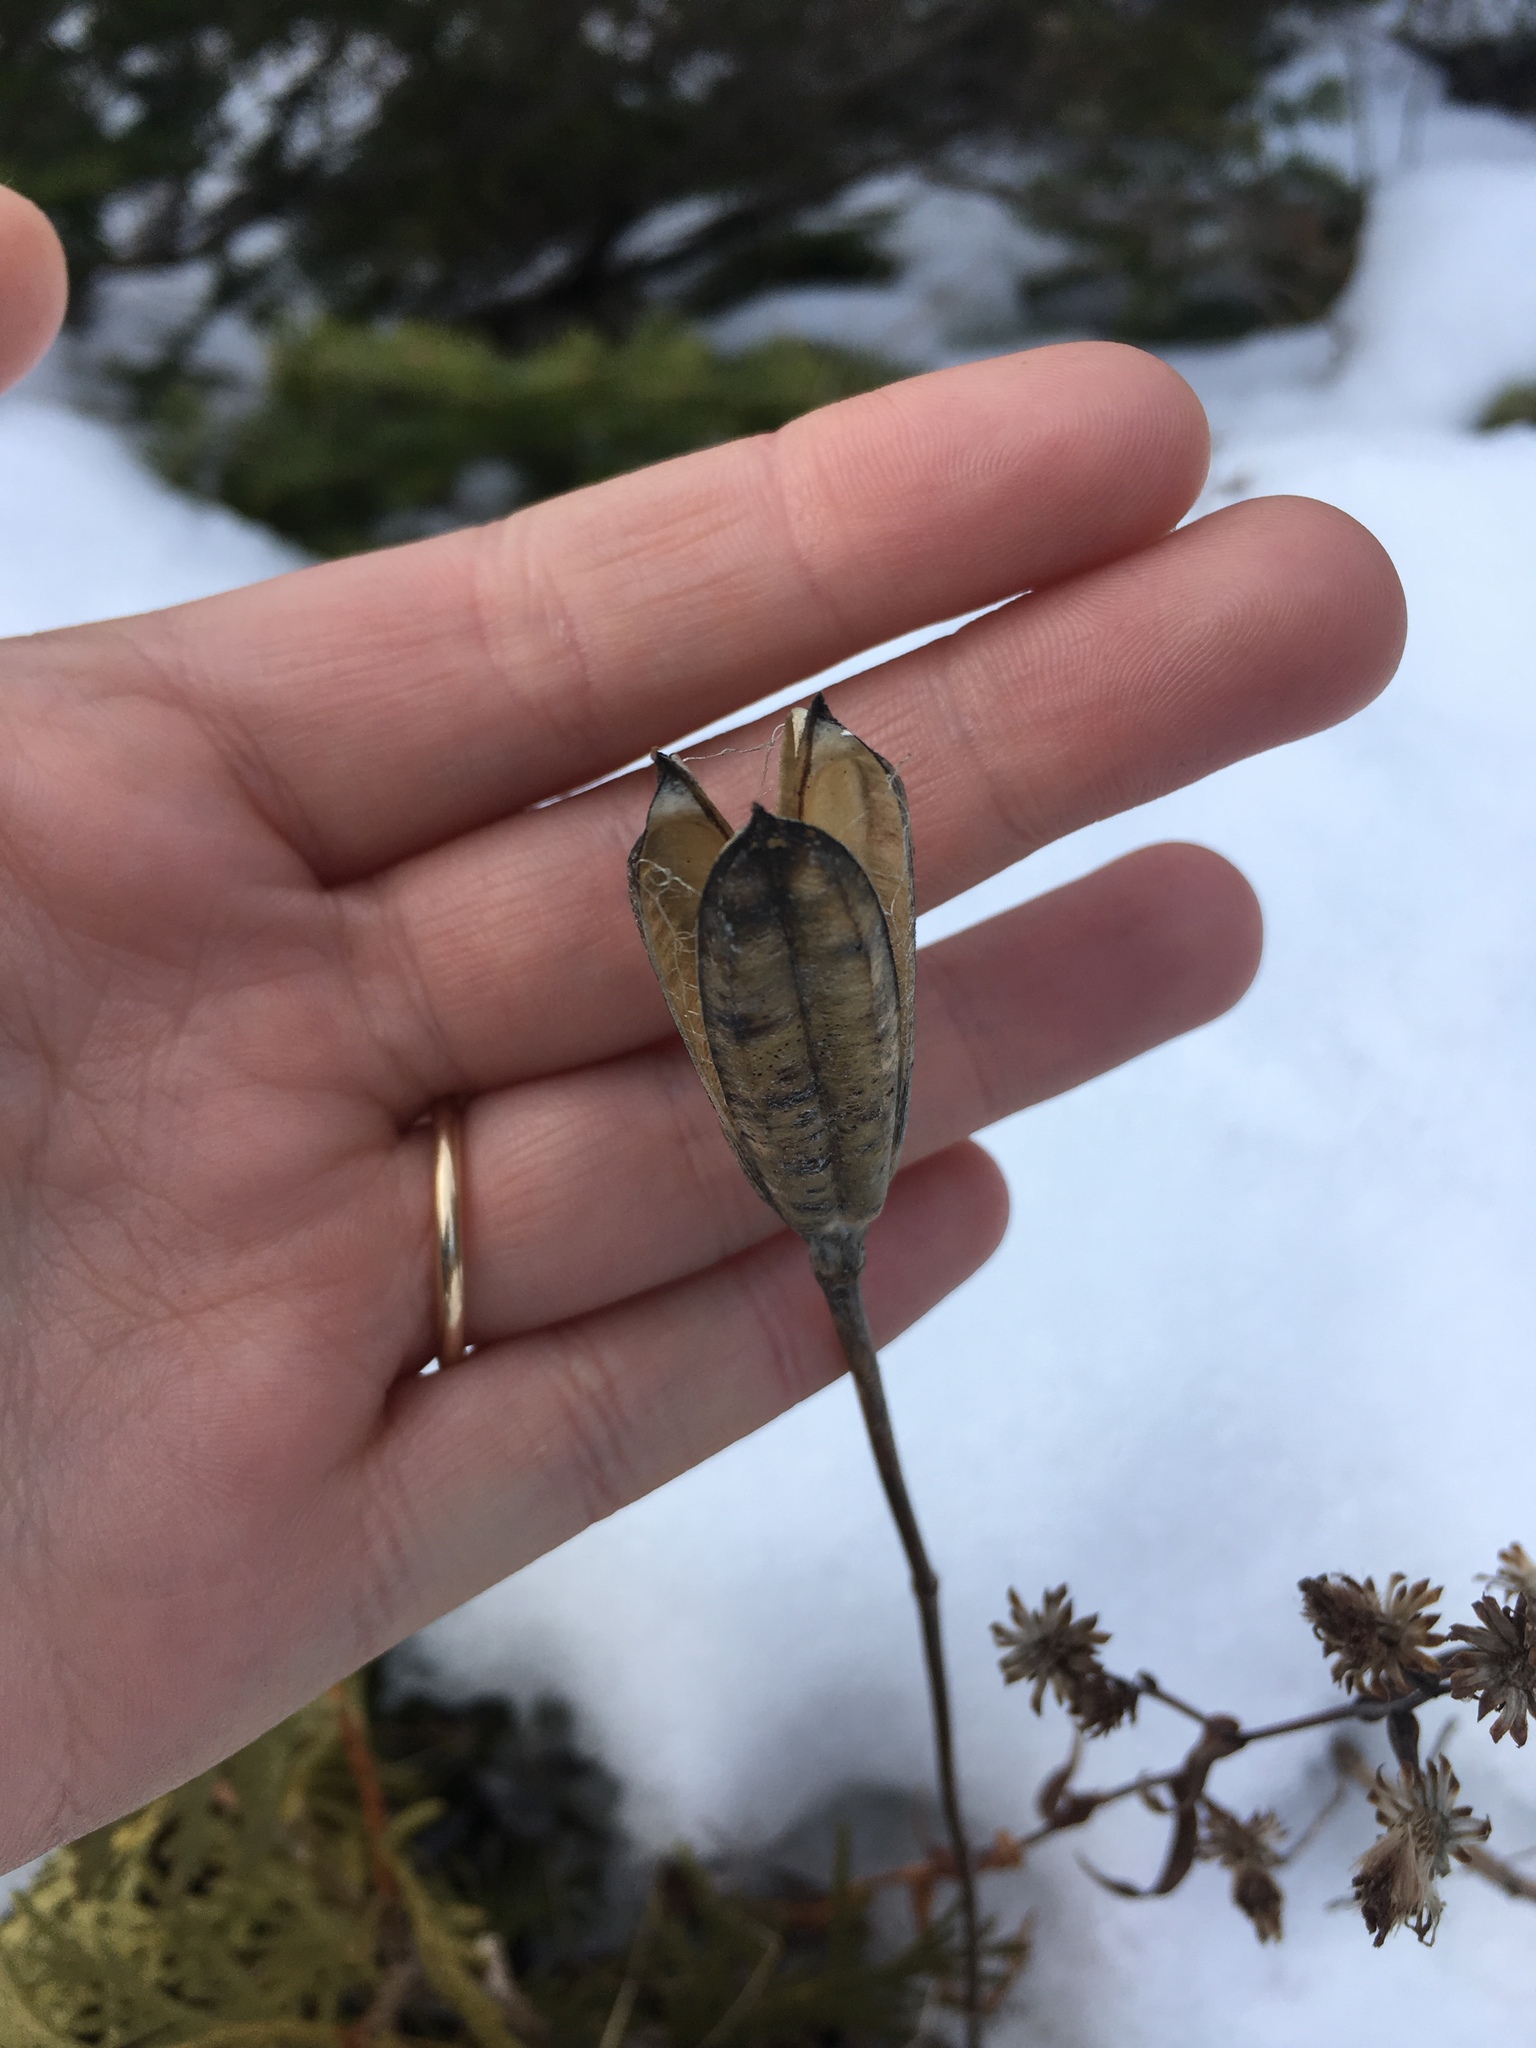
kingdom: Plantae
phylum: Tracheophyta
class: Liliopsida
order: Liliales
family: Liliaceae
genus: Lilium
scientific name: Lilium philadelphicum
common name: Red lily
